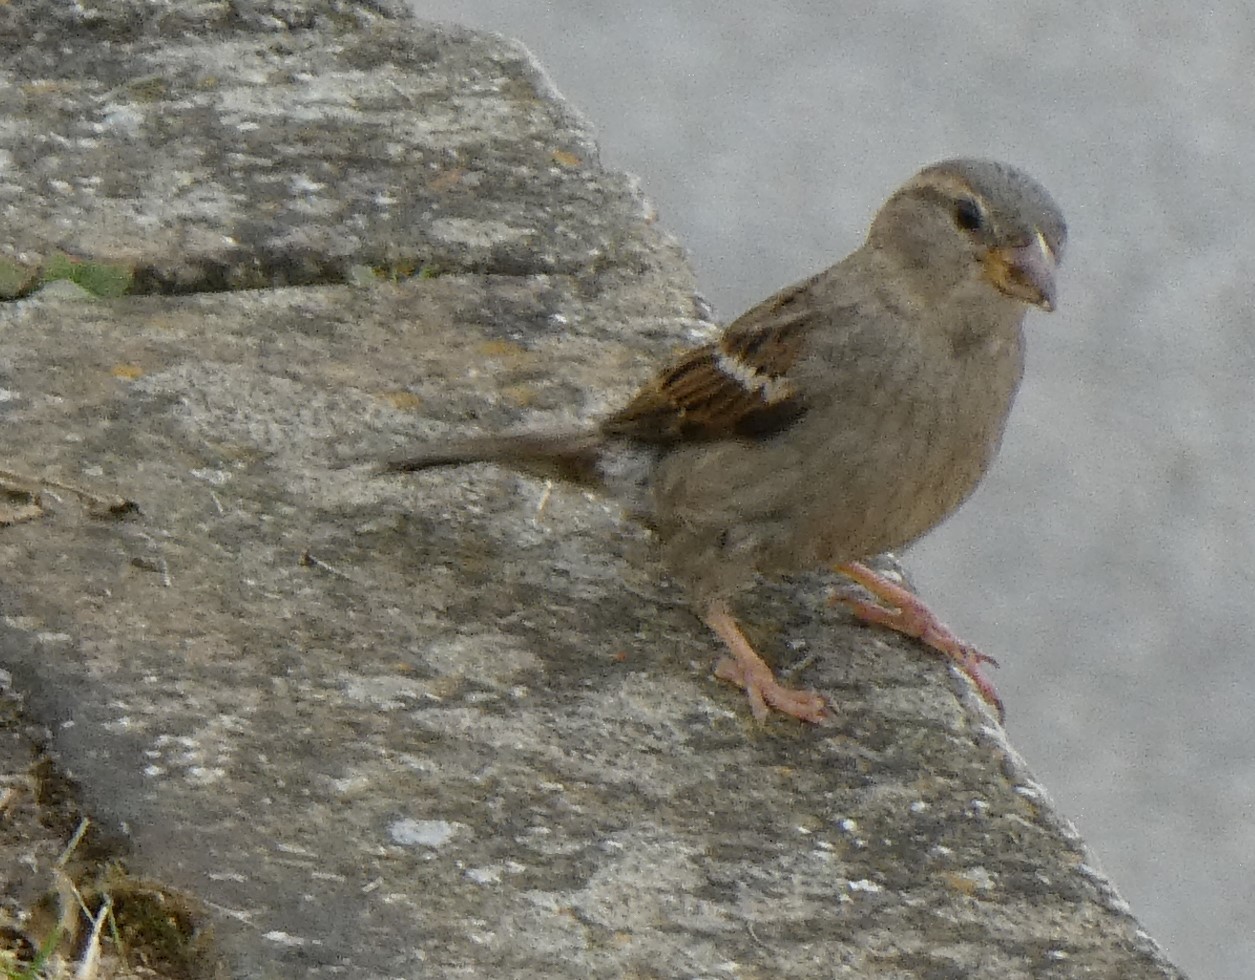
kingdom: Animalia
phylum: Chordata
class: Aves
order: Passeriformes
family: Passeridae
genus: Passer
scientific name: Passer domesticus
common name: House sparrow
